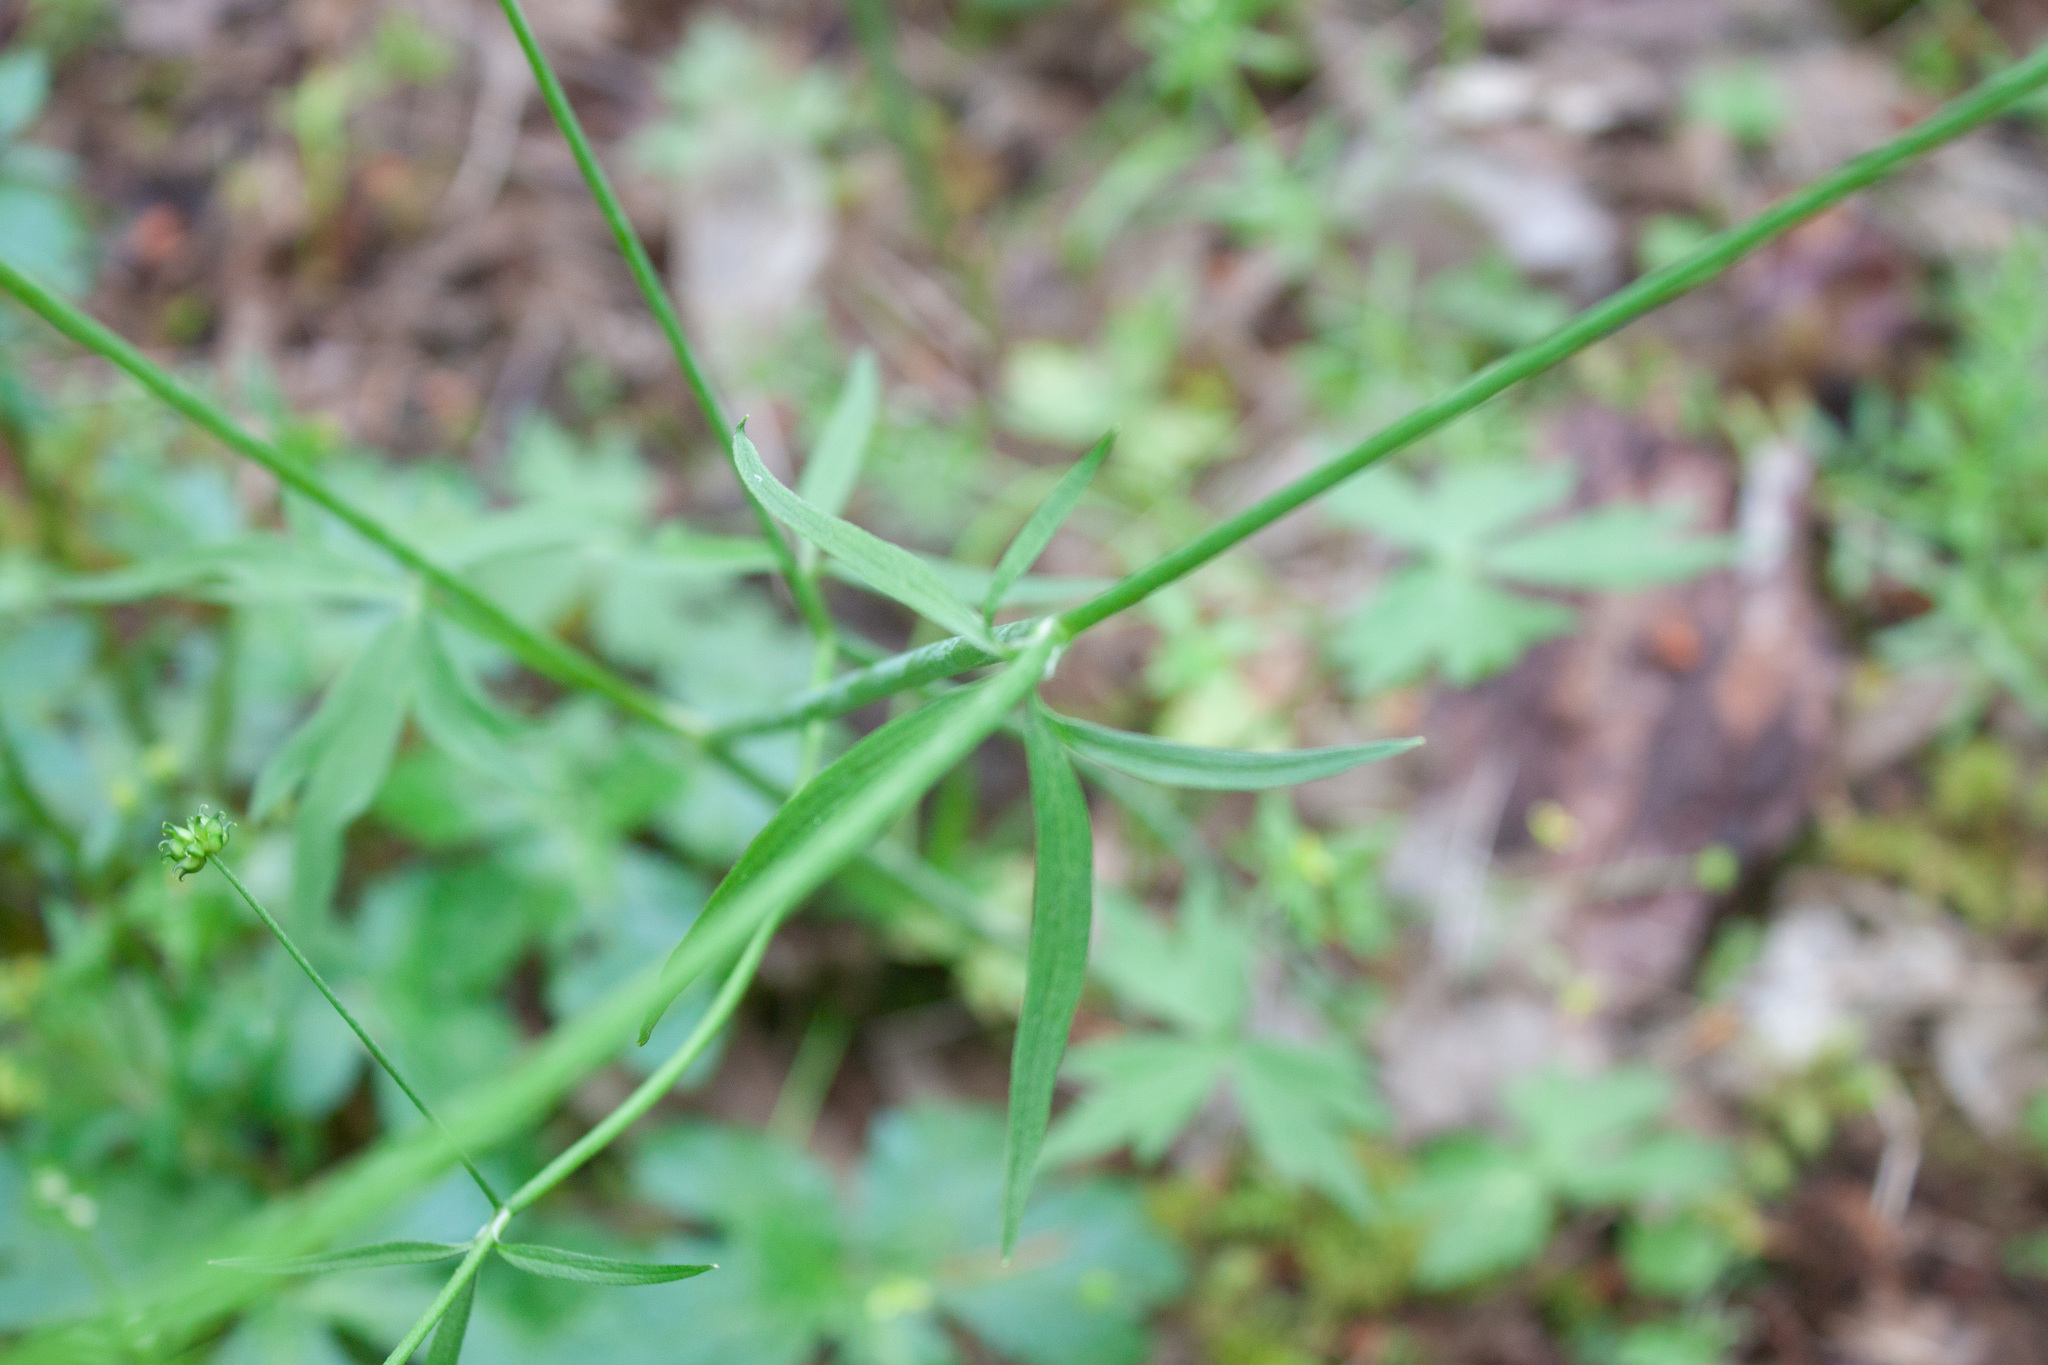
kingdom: Plantae
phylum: Tracheophyta
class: Magnoliopsida
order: Ranunculales
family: Ranunculaceae
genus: Ranunculus
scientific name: Ranunculus uncinatus
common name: Little buttercup
